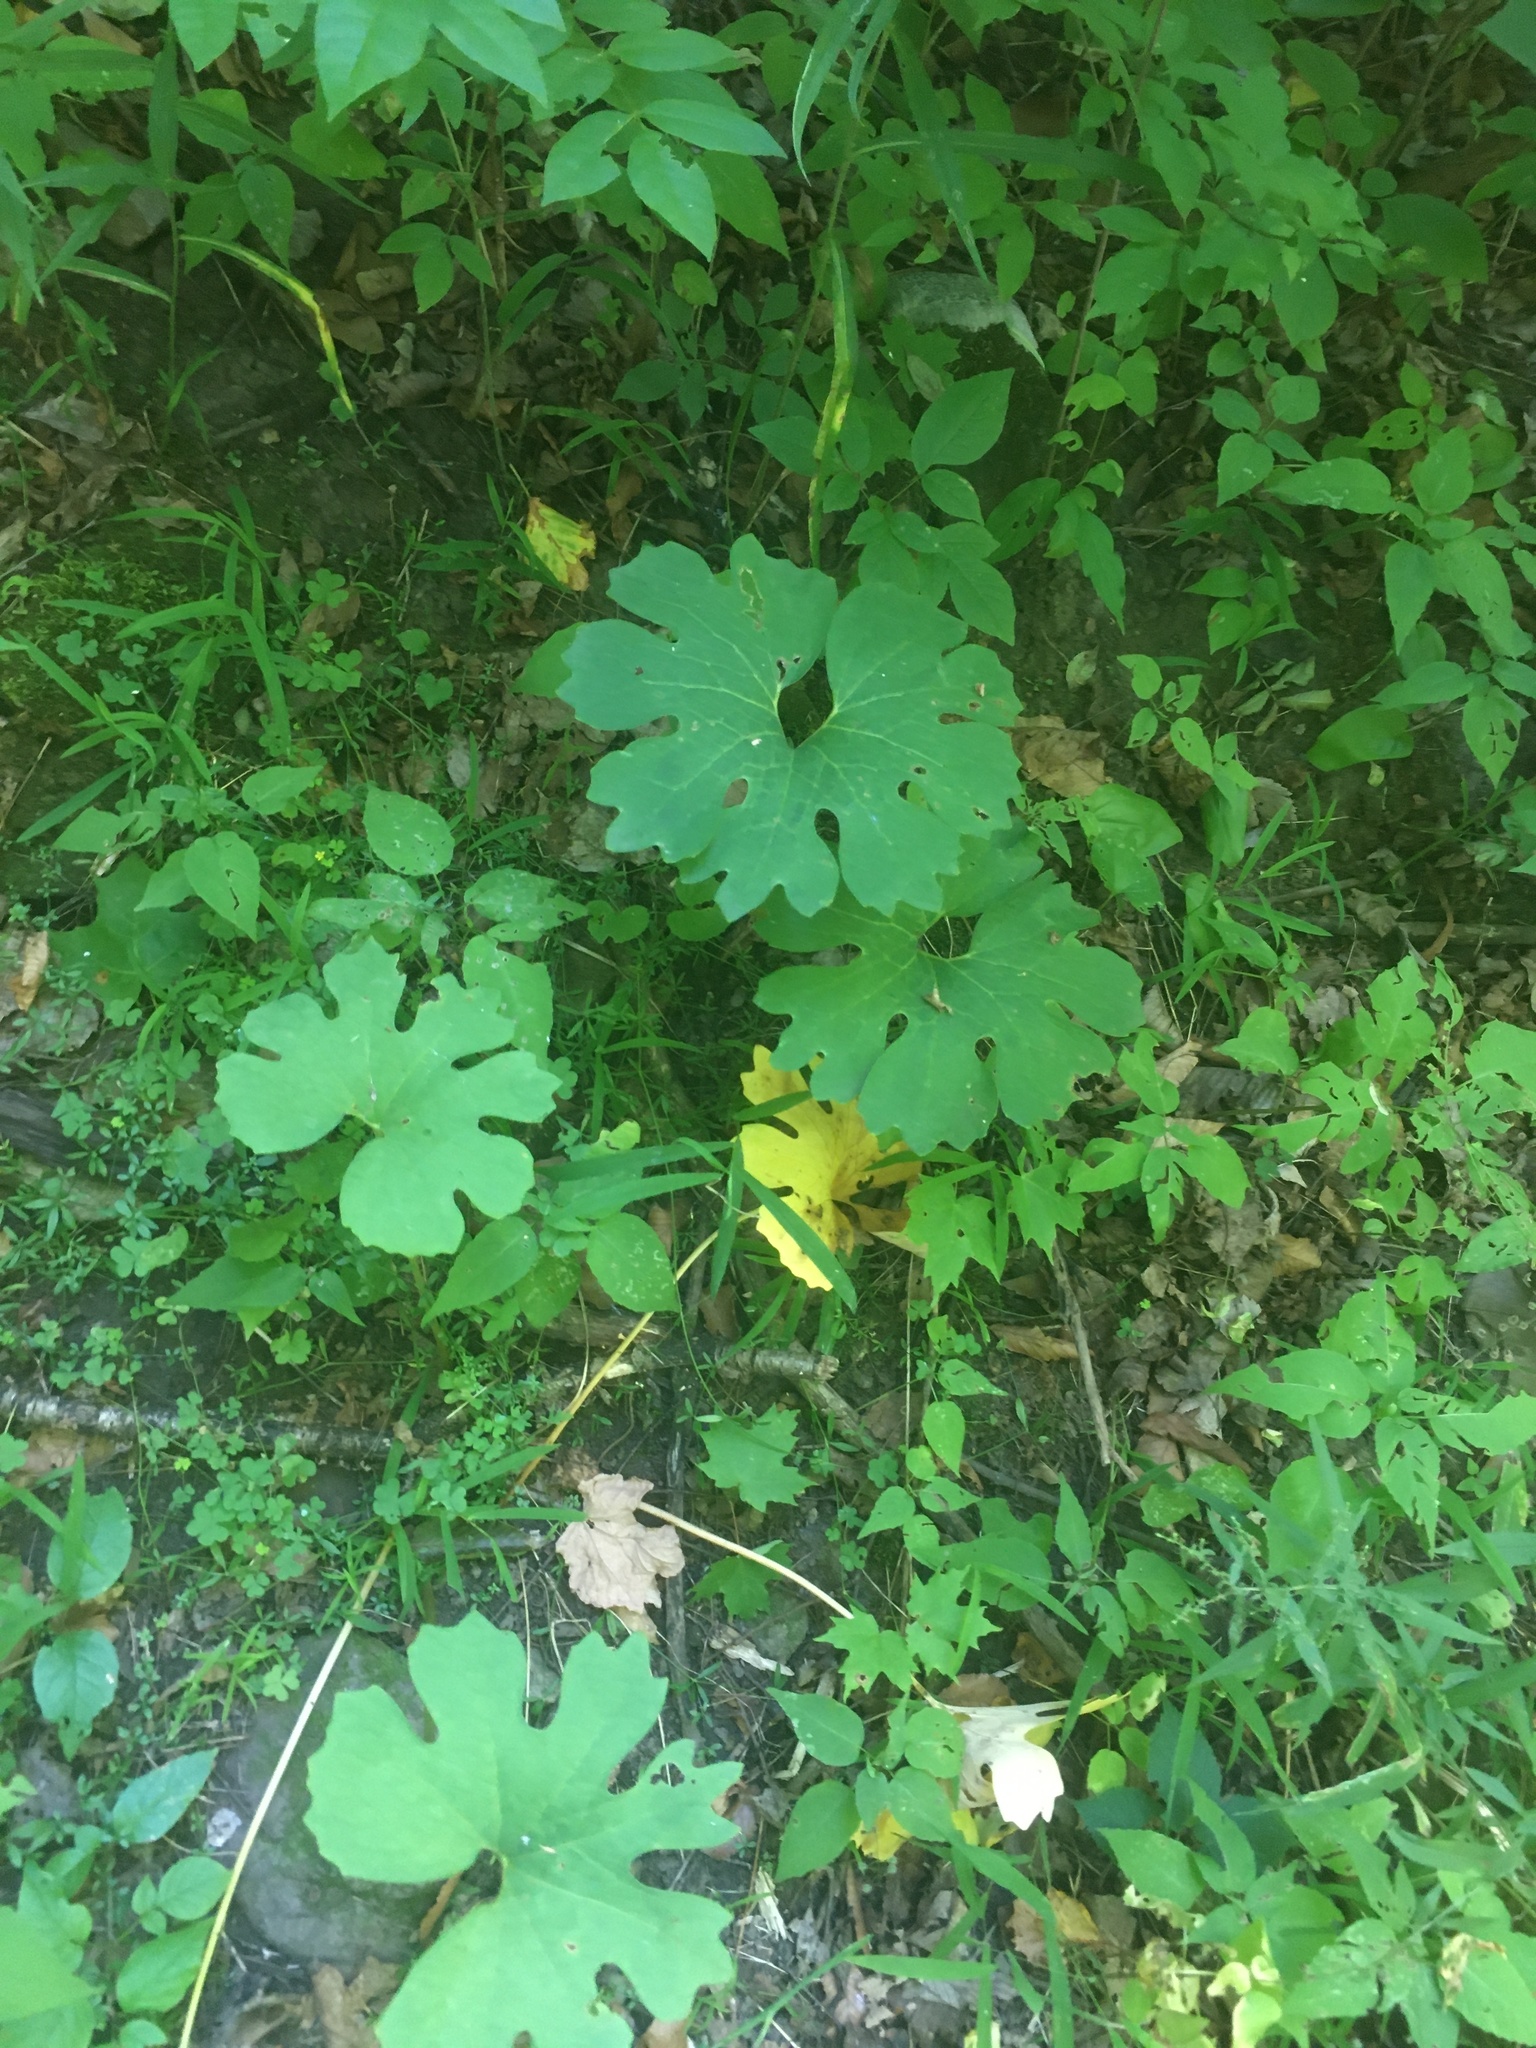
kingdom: Plantae
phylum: Tracheophyta
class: Magnoliopsida
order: Ranunculales
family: Papaveraceae
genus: Sanguinaria
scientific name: Sanguinaria canadensis
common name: Bloodroot
